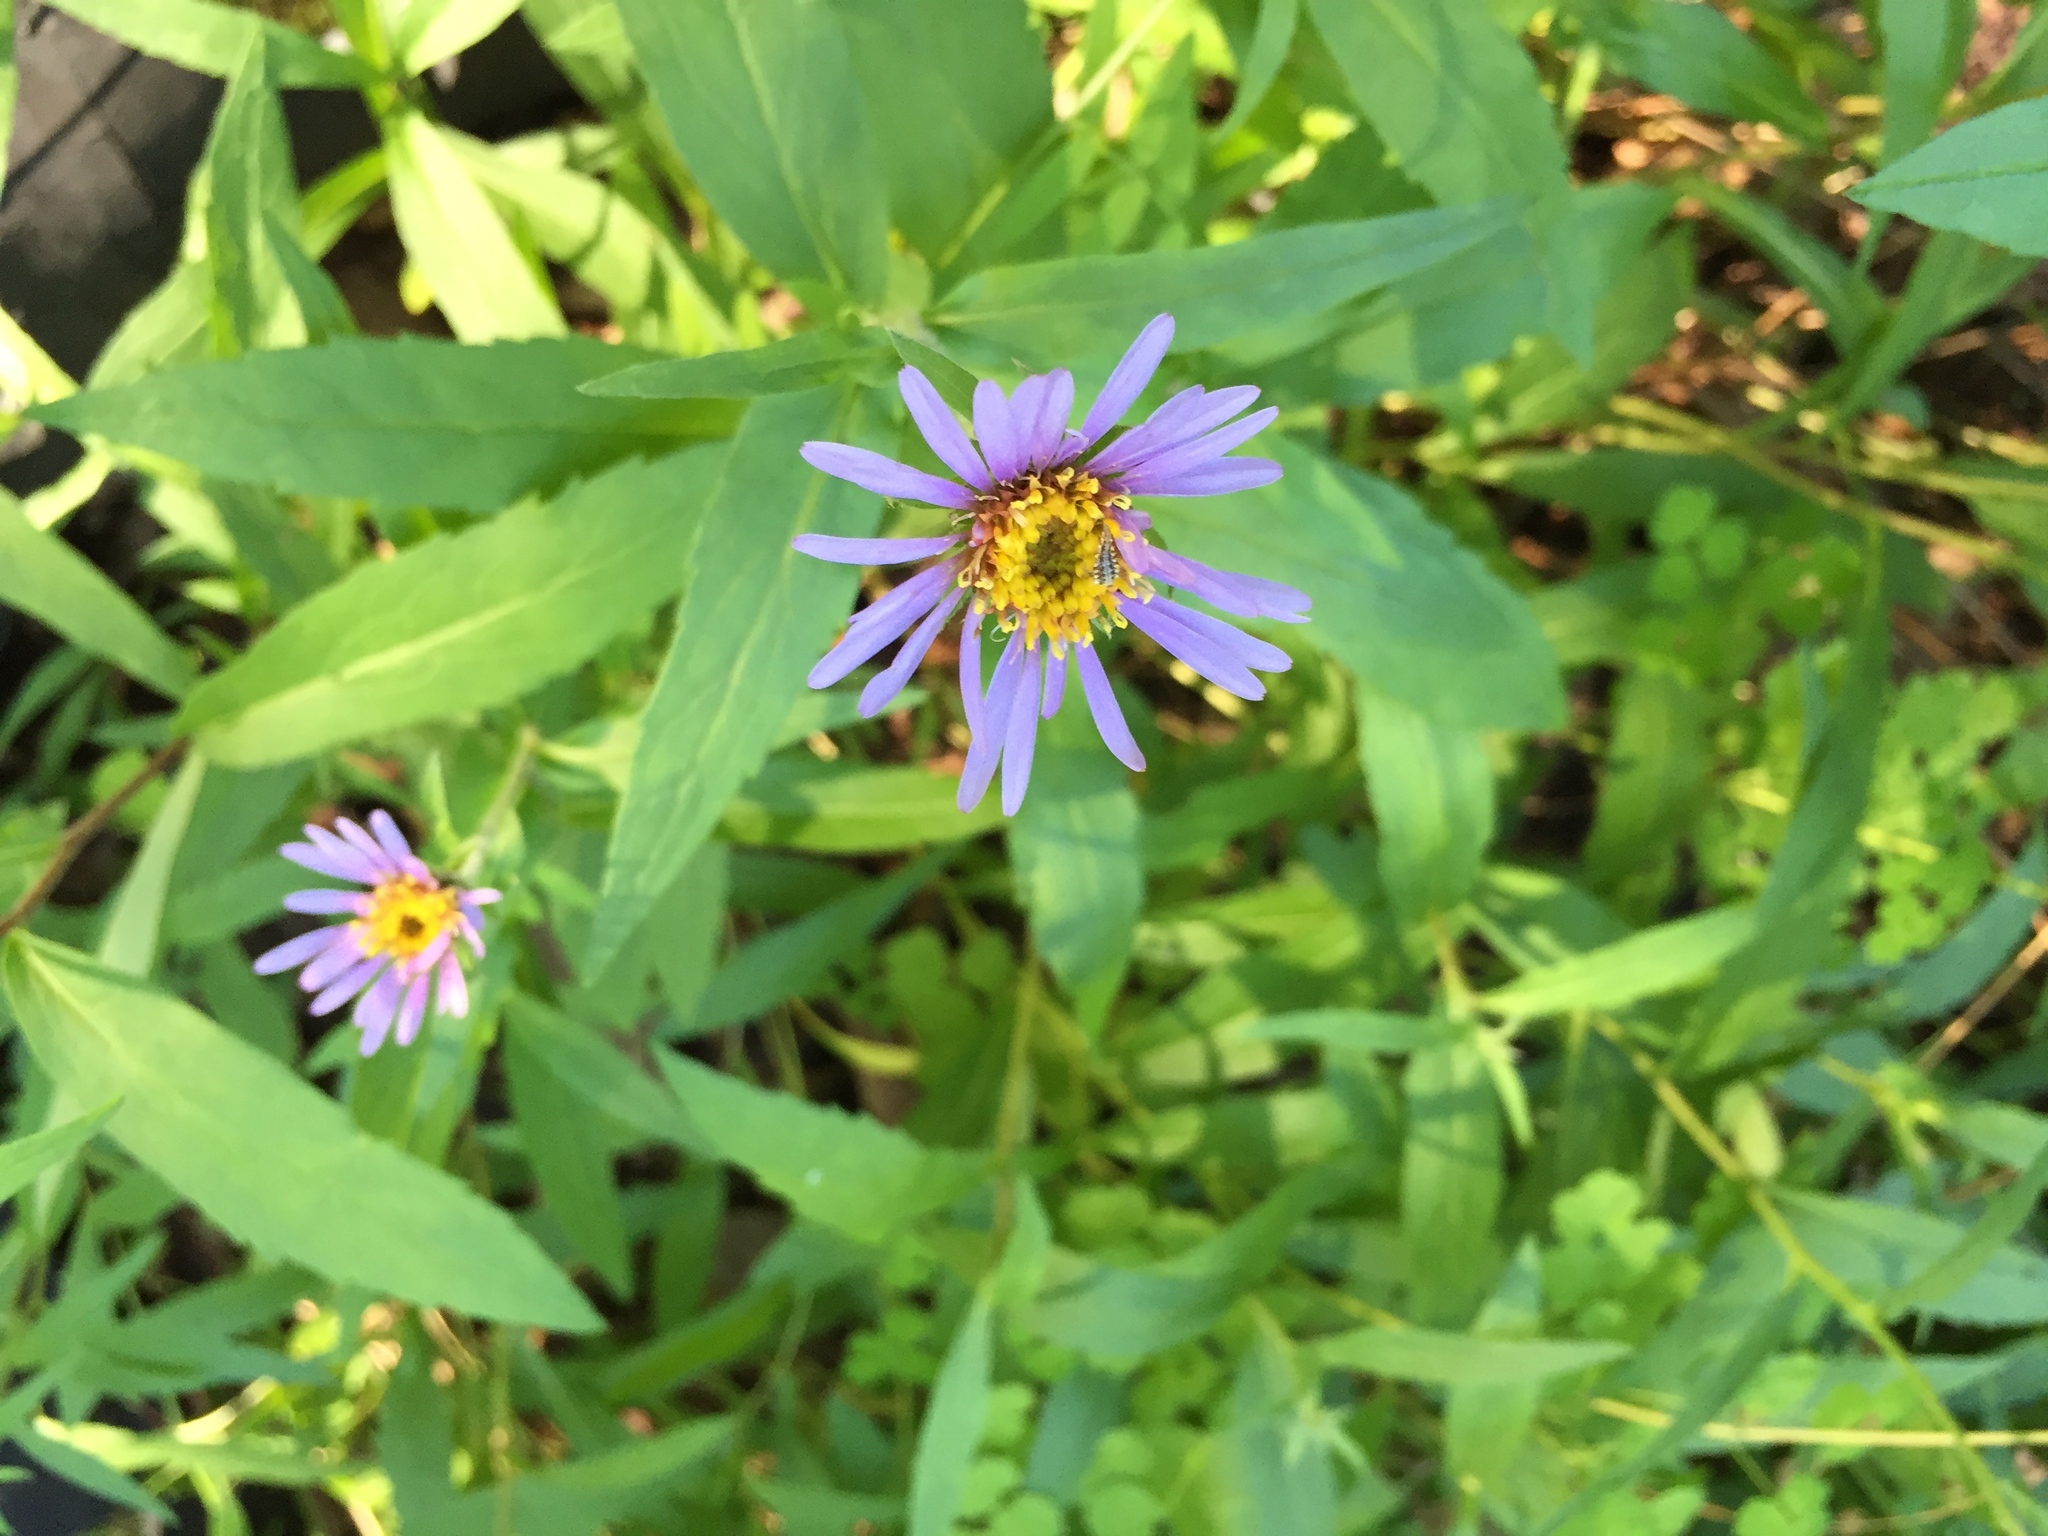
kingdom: Plantae
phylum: Tracheophyta
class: Magnoliopsida
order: Asterales
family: Asteraceae
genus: Eurybia
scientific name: Eurybia sibirica
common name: Arctic aster
